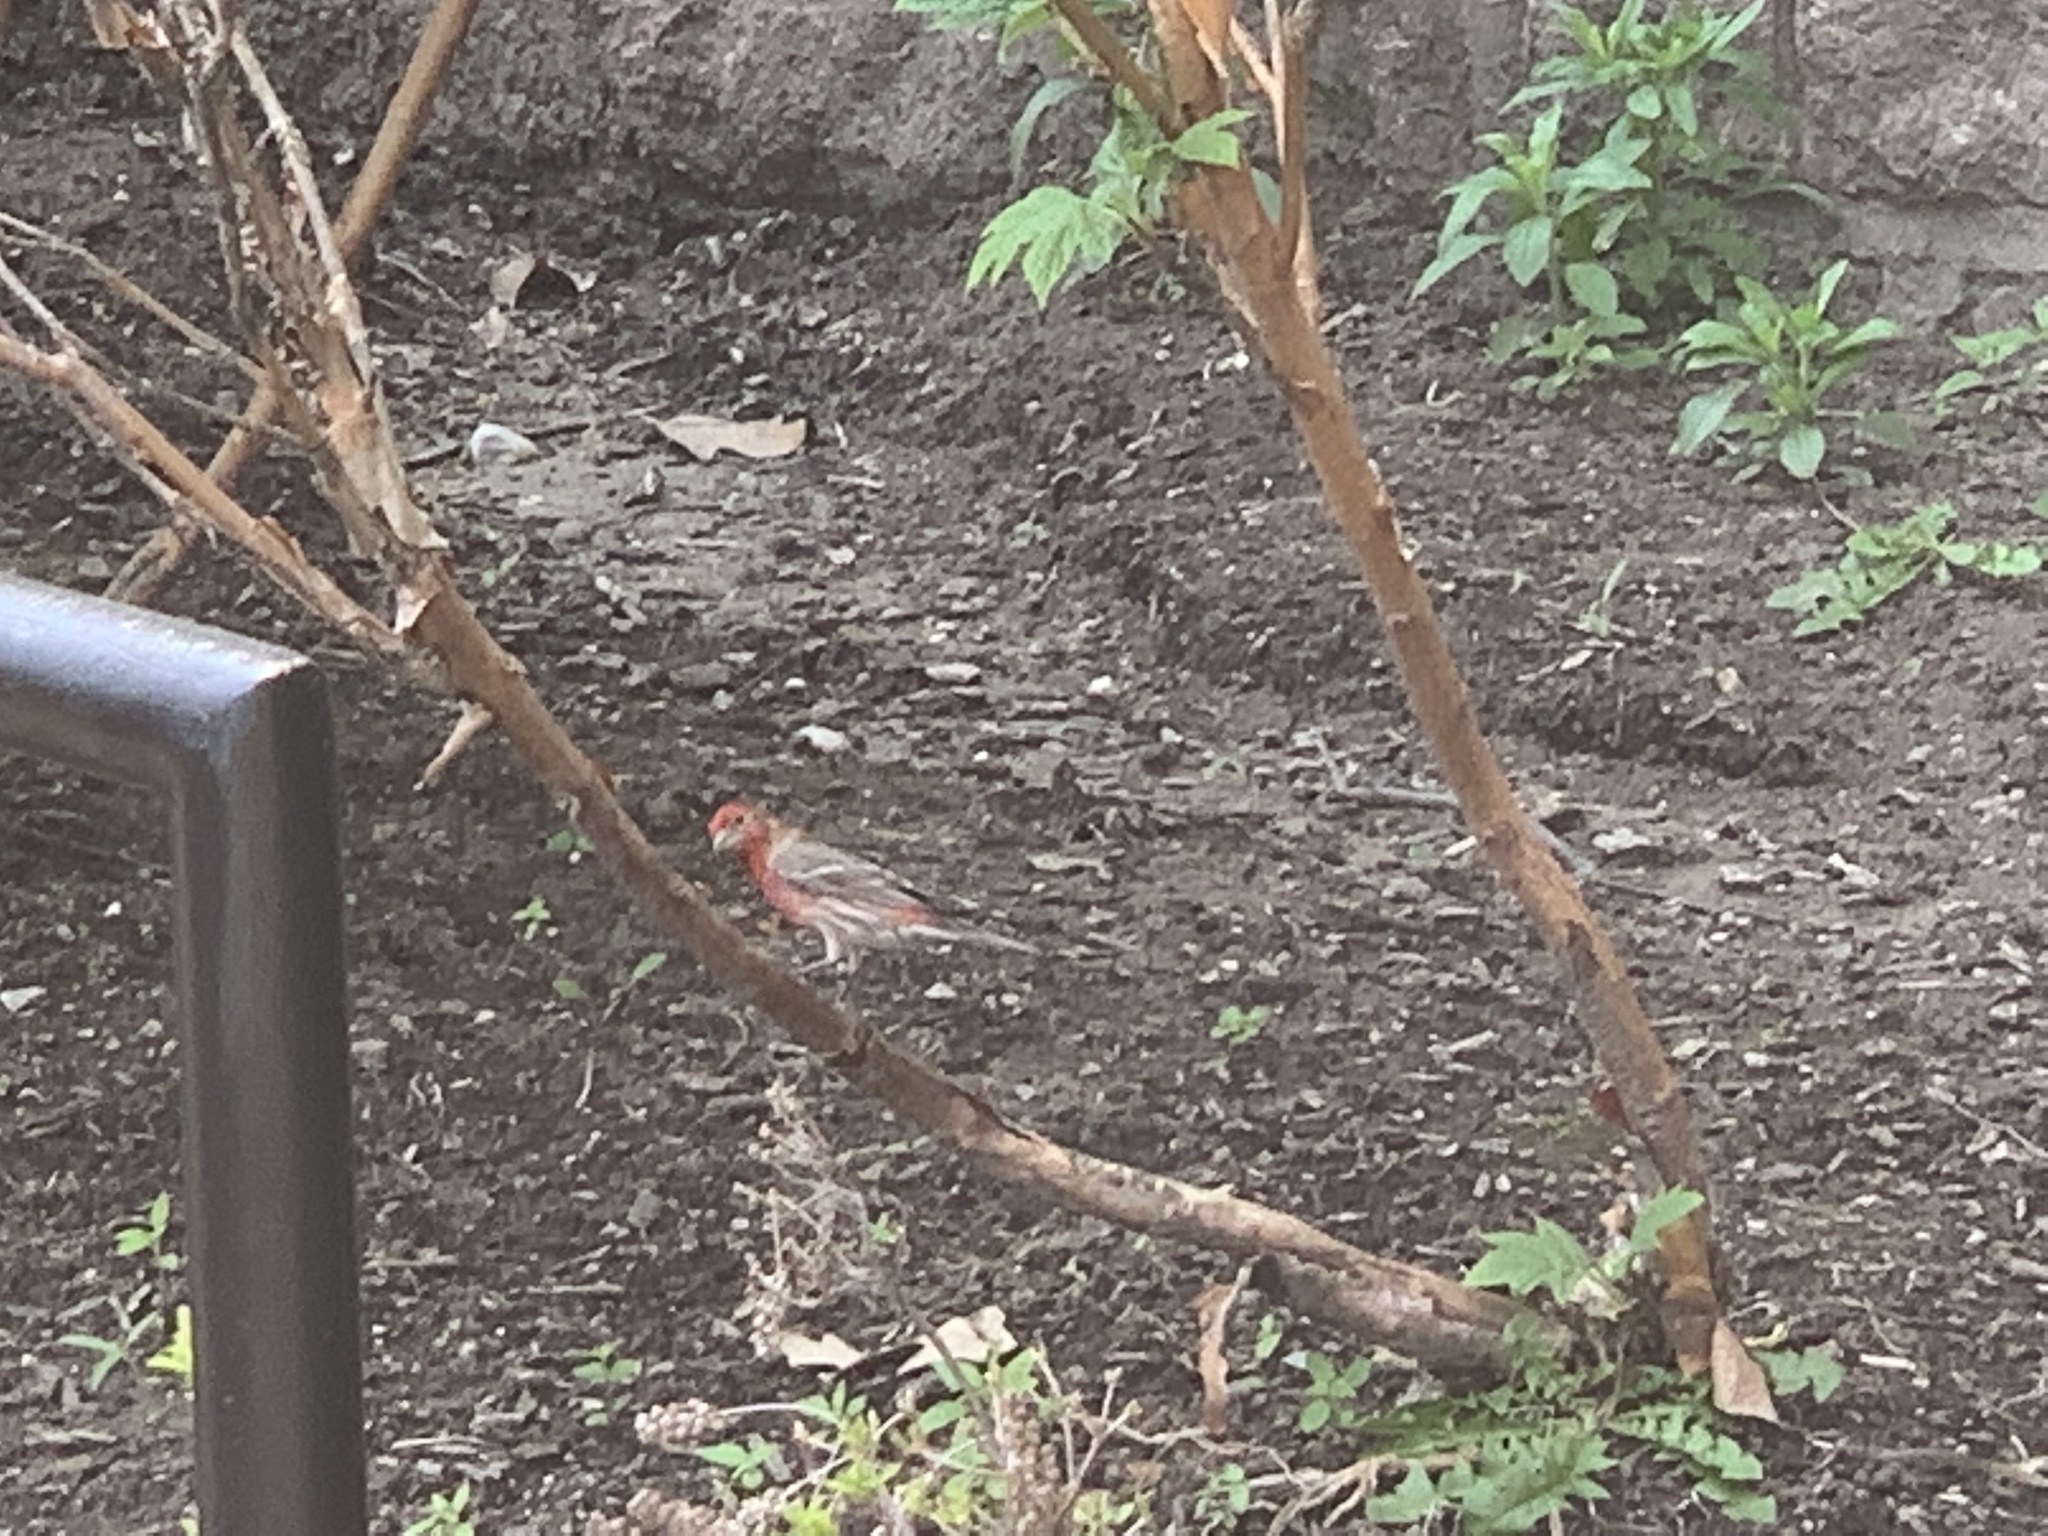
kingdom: Animalia
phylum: Chordata
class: Aves
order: Passeriformes
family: Fringillidae
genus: Haemorhous
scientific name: Haemorhous mexicanus
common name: House finch
